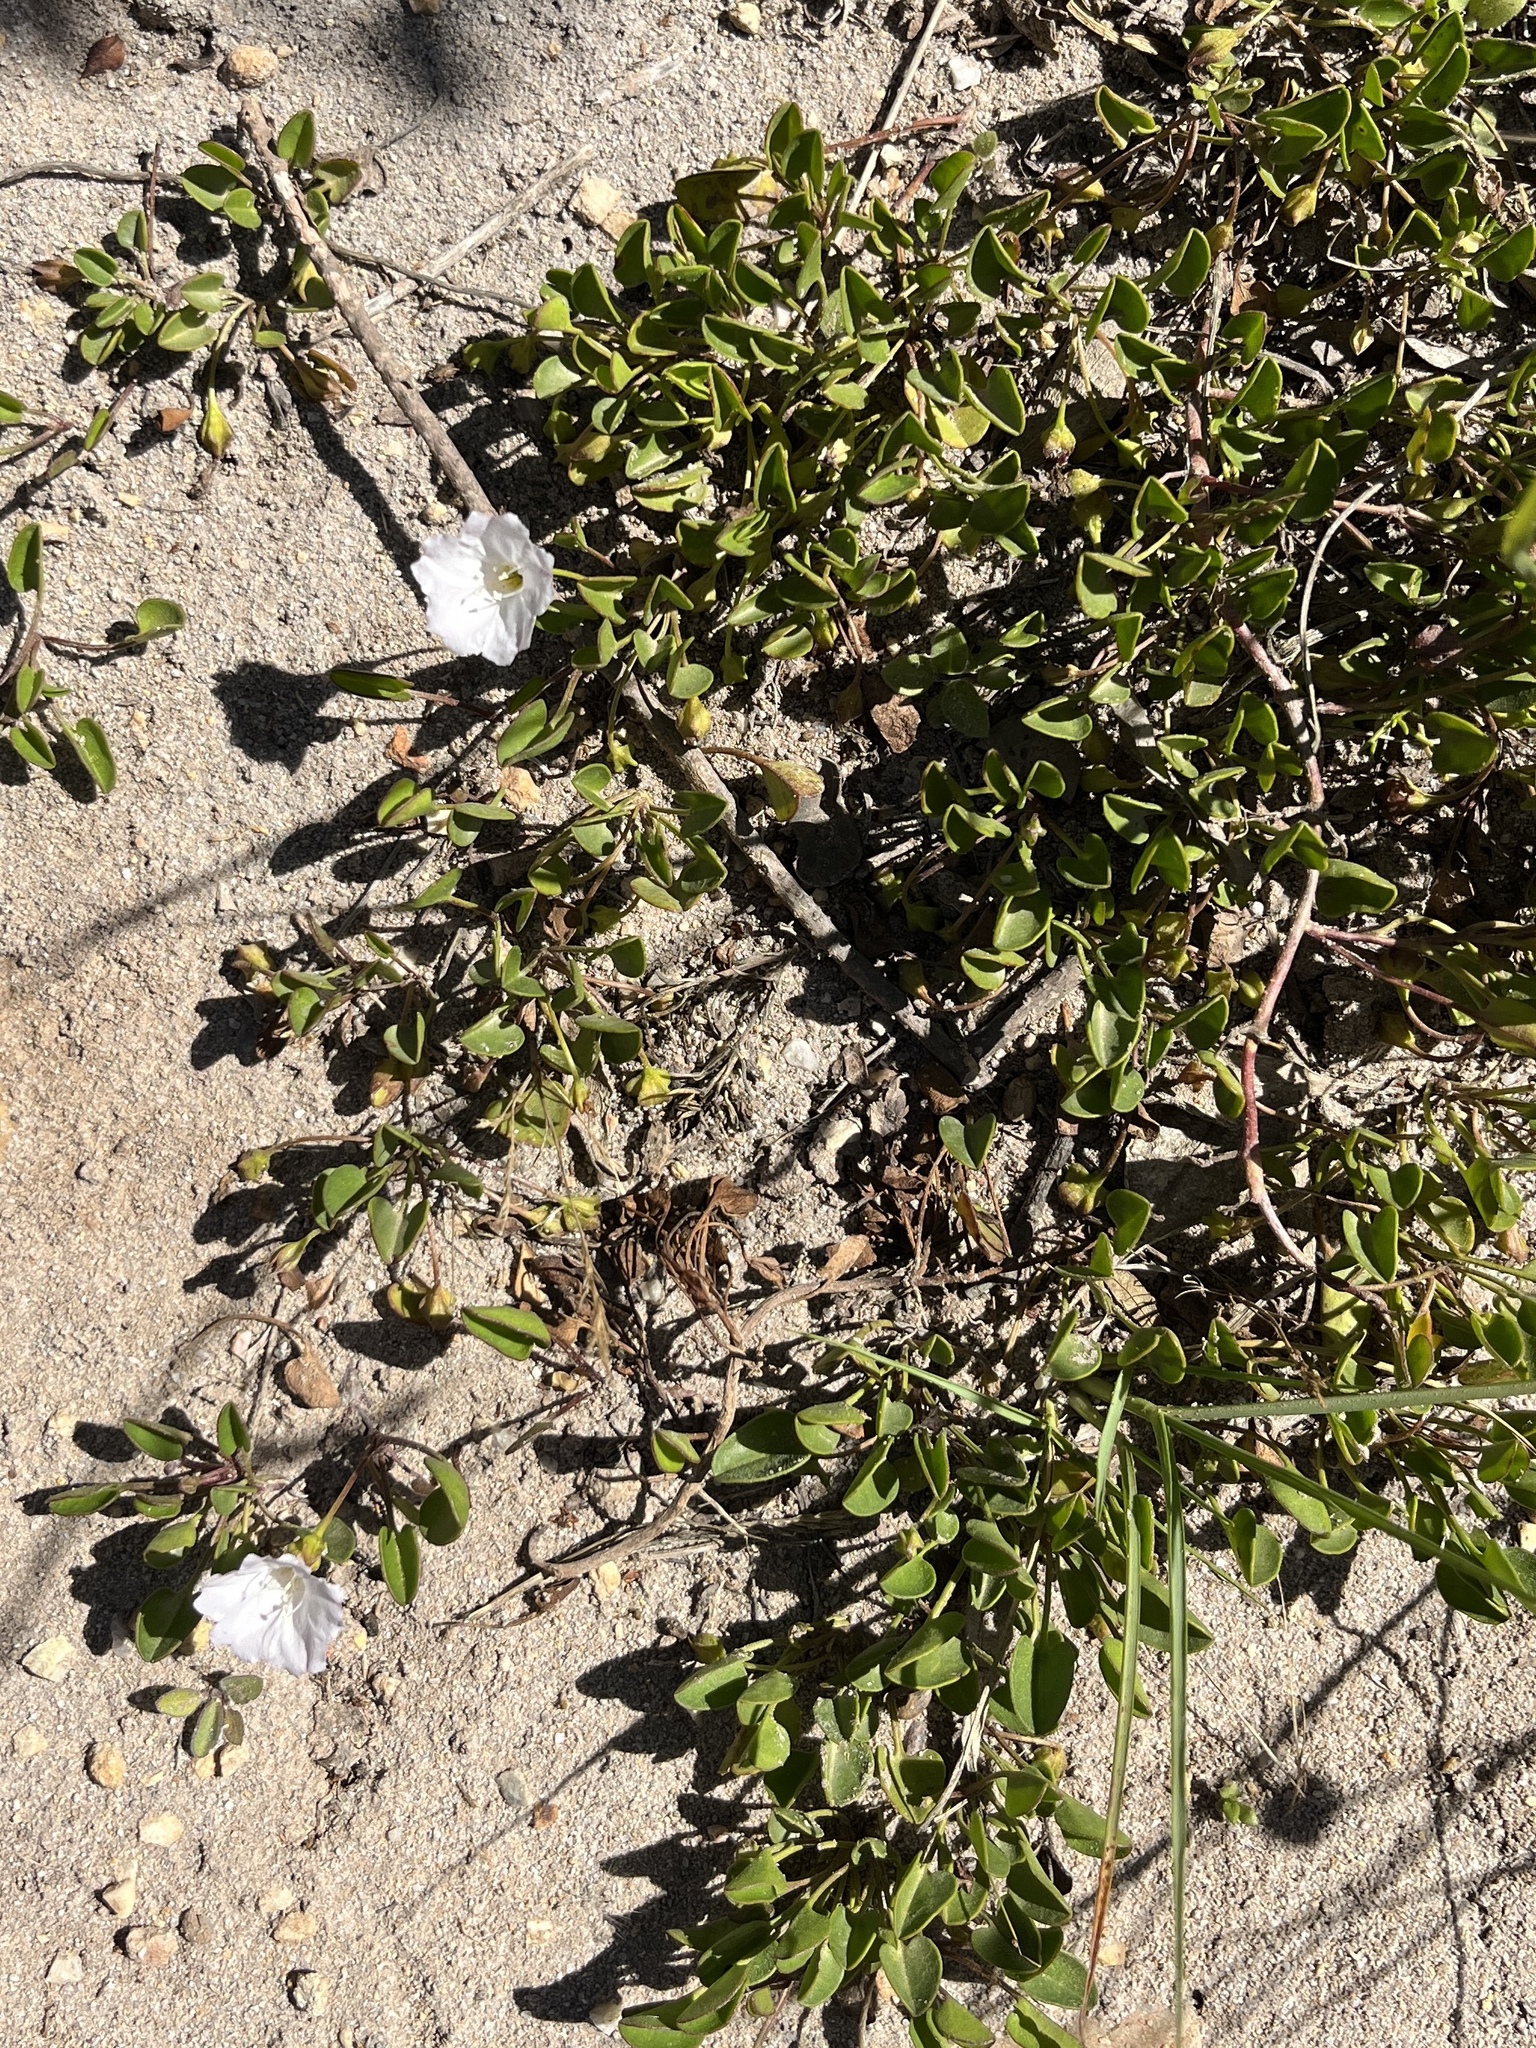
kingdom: Plantae
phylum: Tracheophyta
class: Magnoliopsida
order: Solanales
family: Convolvulaceae
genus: Falkia
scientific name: Falkia repens
